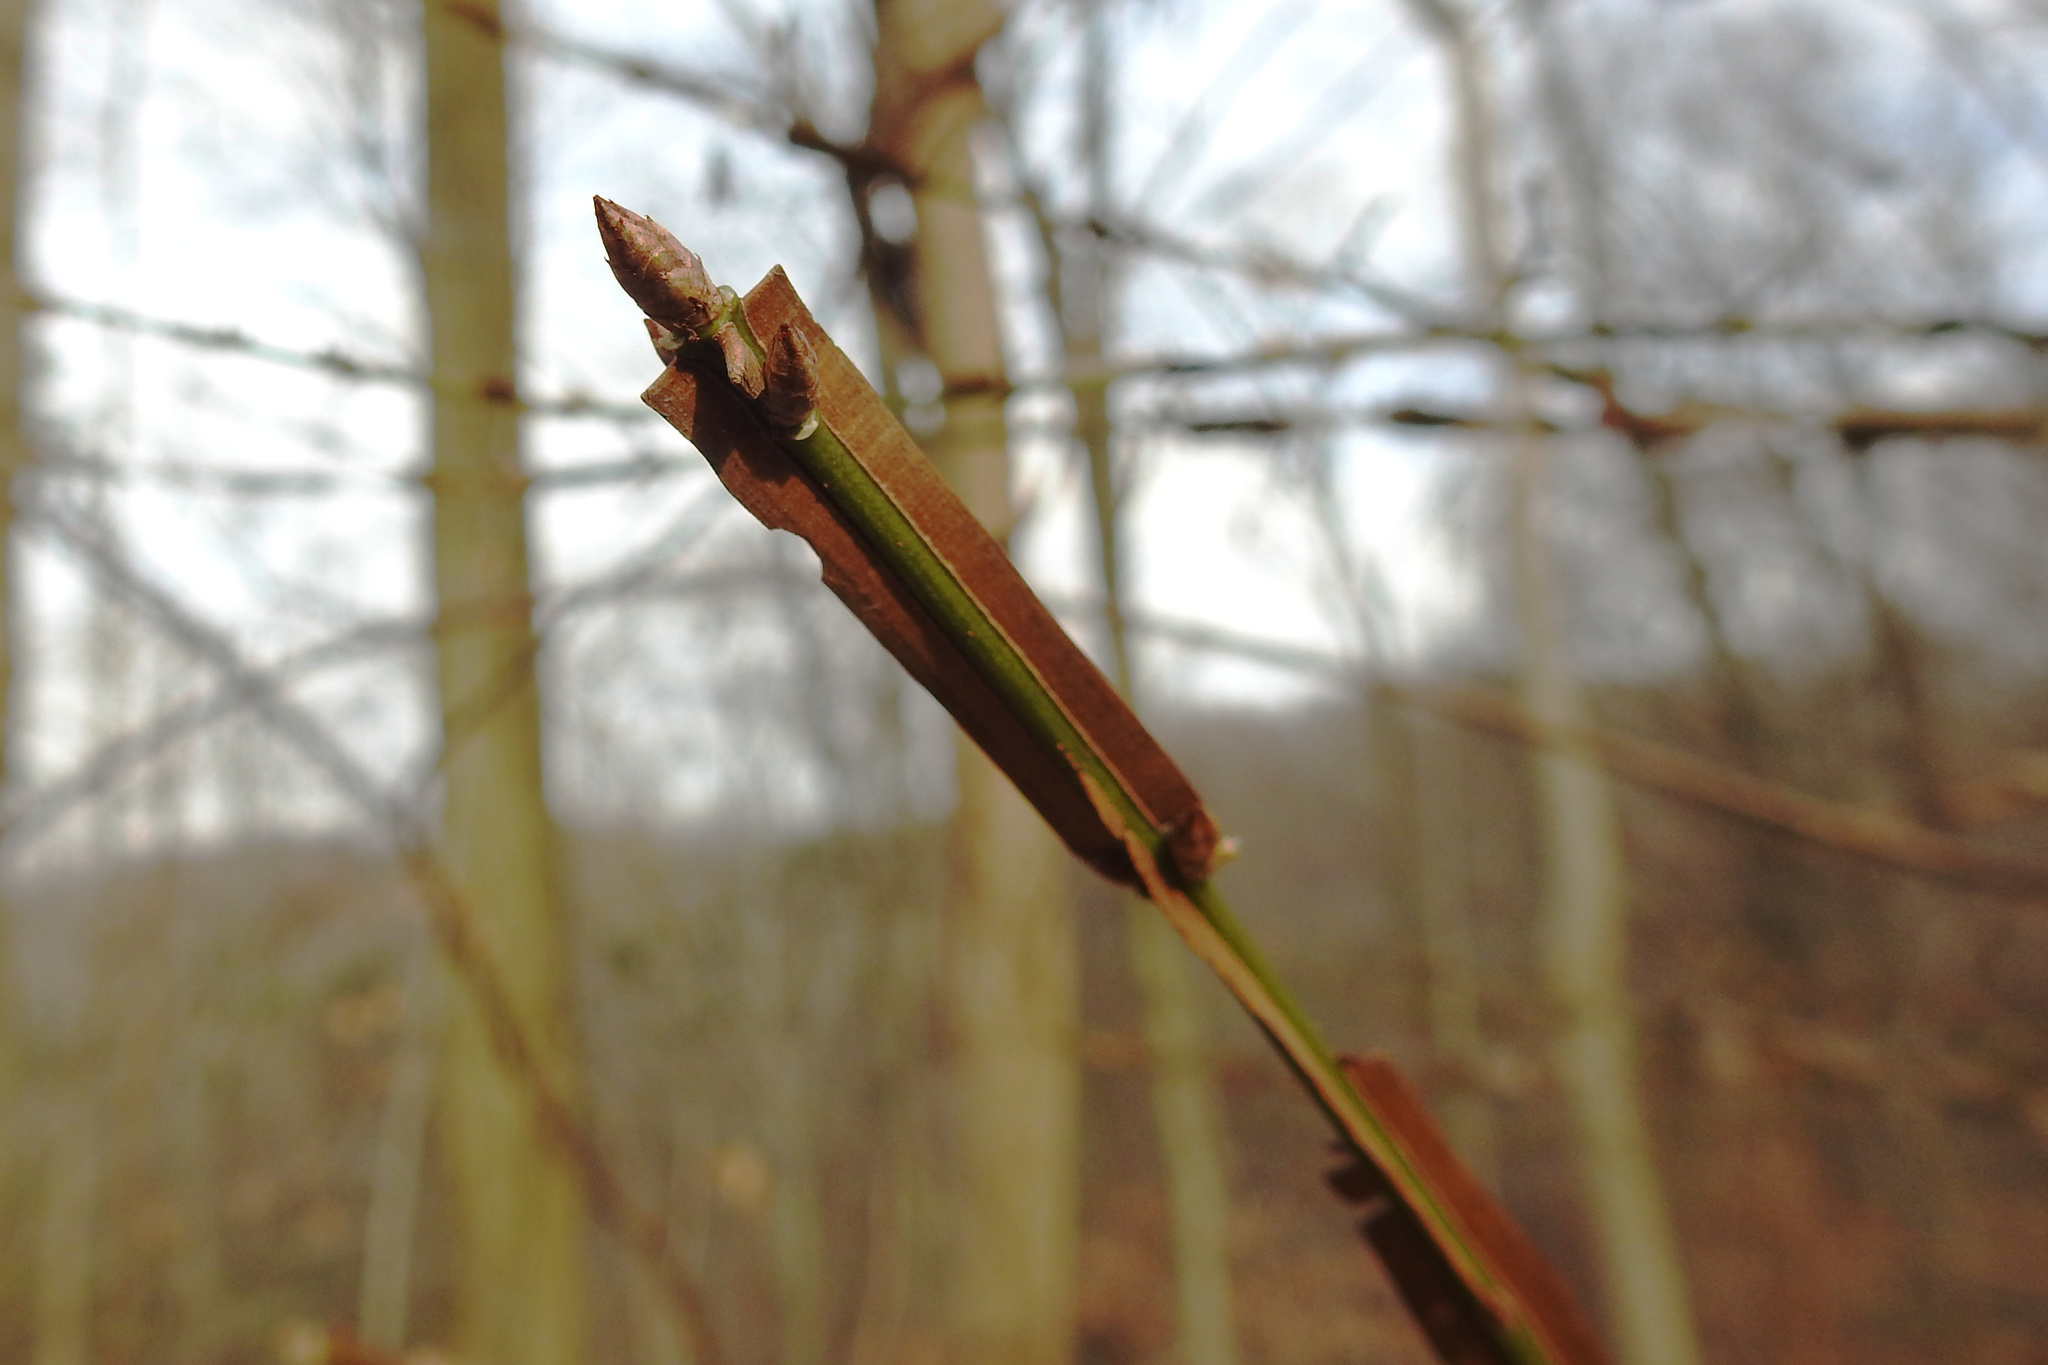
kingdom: Plantae
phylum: Tracheophyta
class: Magnoliopsida
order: Celastrales
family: Celastraceae
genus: Euonymus
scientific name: Euonymus alatus
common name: Winged euonymus
